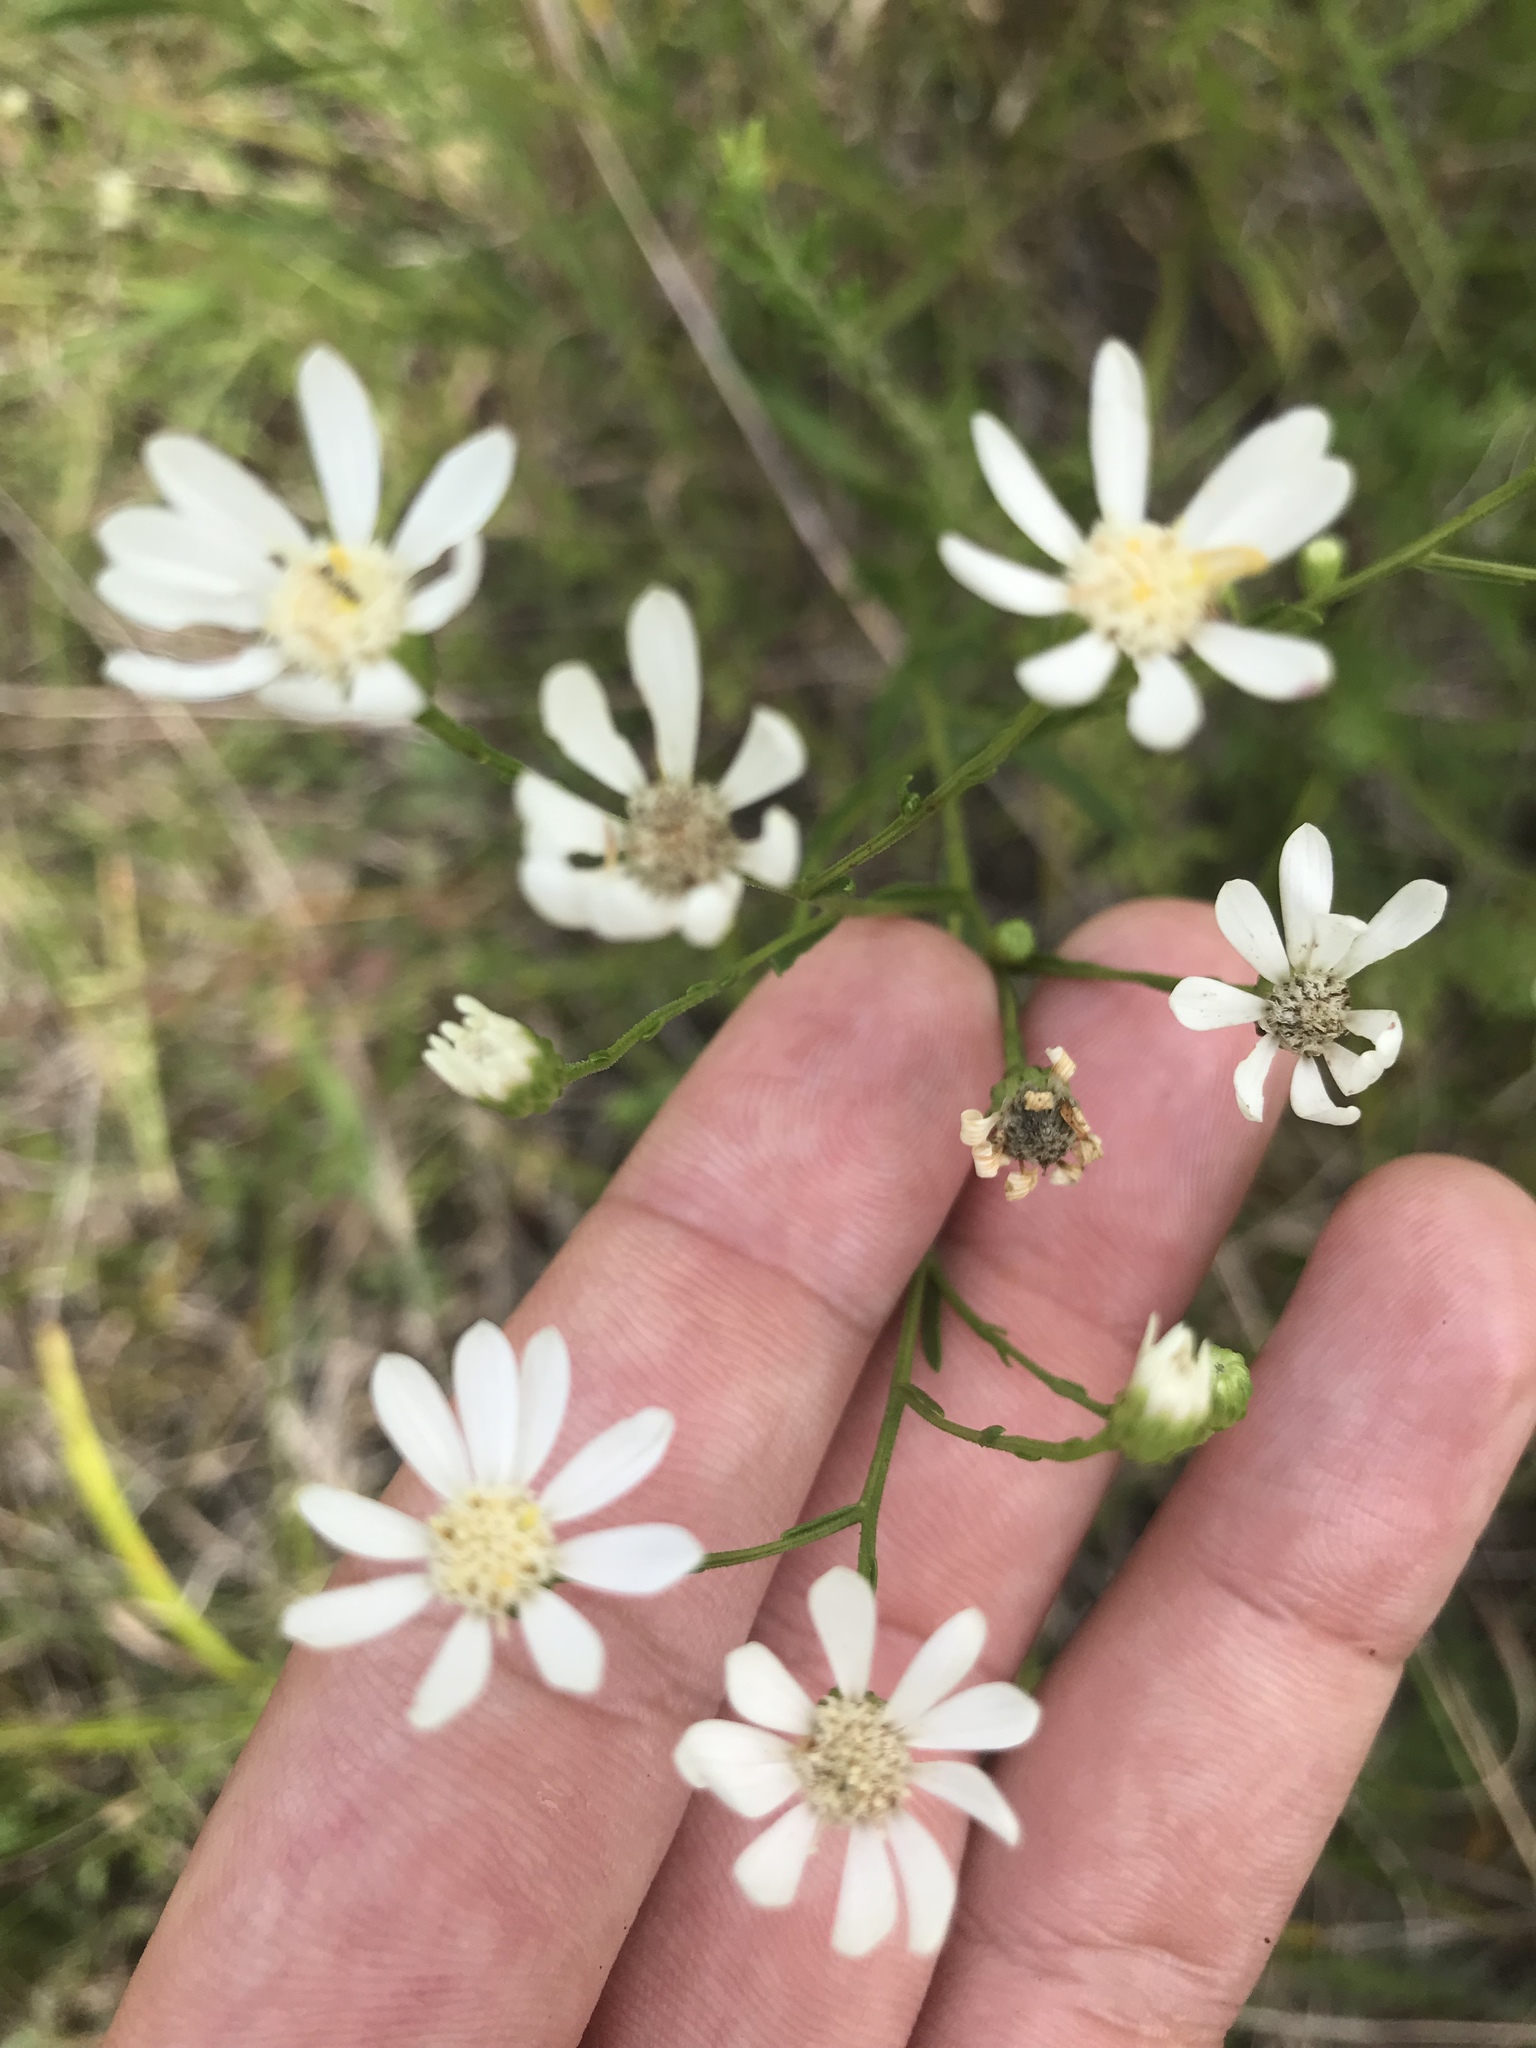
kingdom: Plantae
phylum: Tracheophyta
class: Magnoliopsida
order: Asterales
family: Asteraceae
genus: Solidago
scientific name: Solidago ptarmicoides
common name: White flat-top goldenrod
